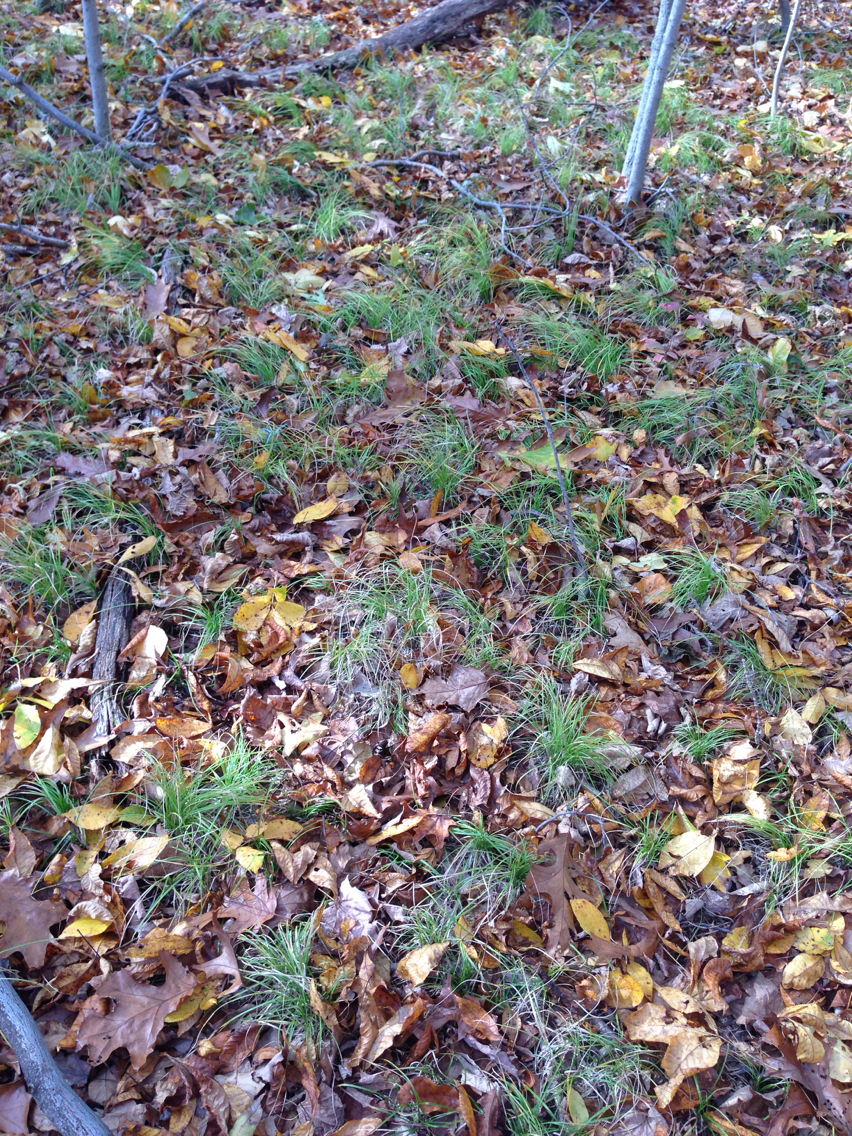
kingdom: Plantae
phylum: Tracheophyta
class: Liliopsida
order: Poales
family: Cyperaceae
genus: Carex
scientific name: Carex
